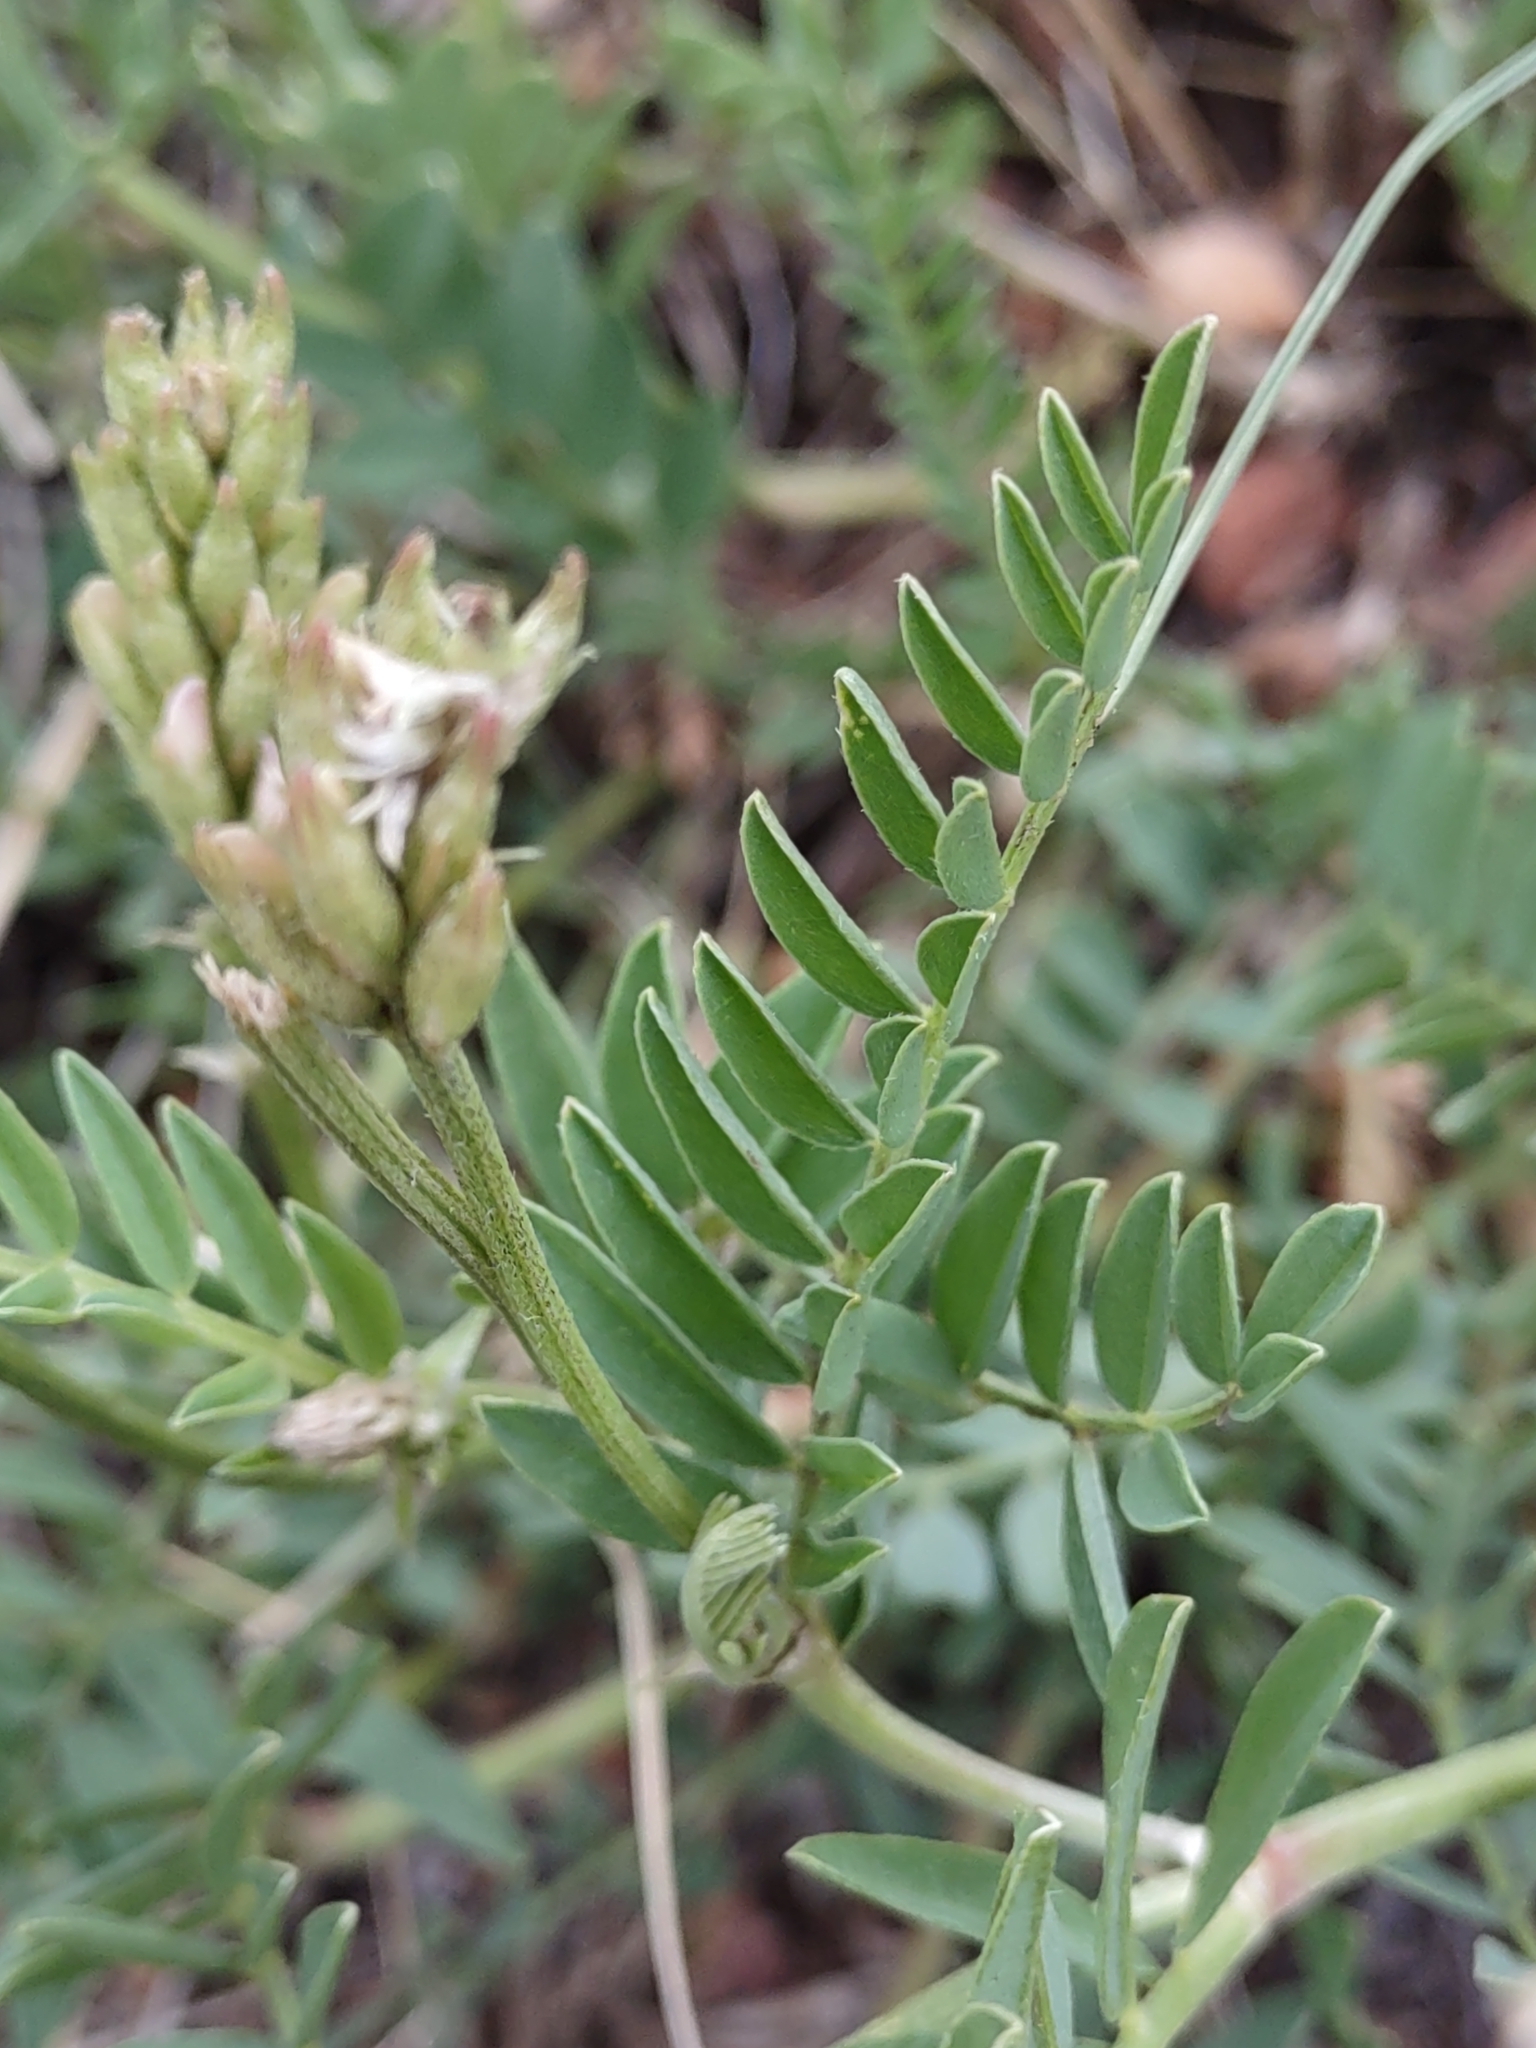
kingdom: Plantae
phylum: Tracheophyta
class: Magnoliopsida
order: Fabales
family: Fabaceae
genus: Astragalus
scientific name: Astragalus laxmannii
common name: Laxmann's milk-vetch
